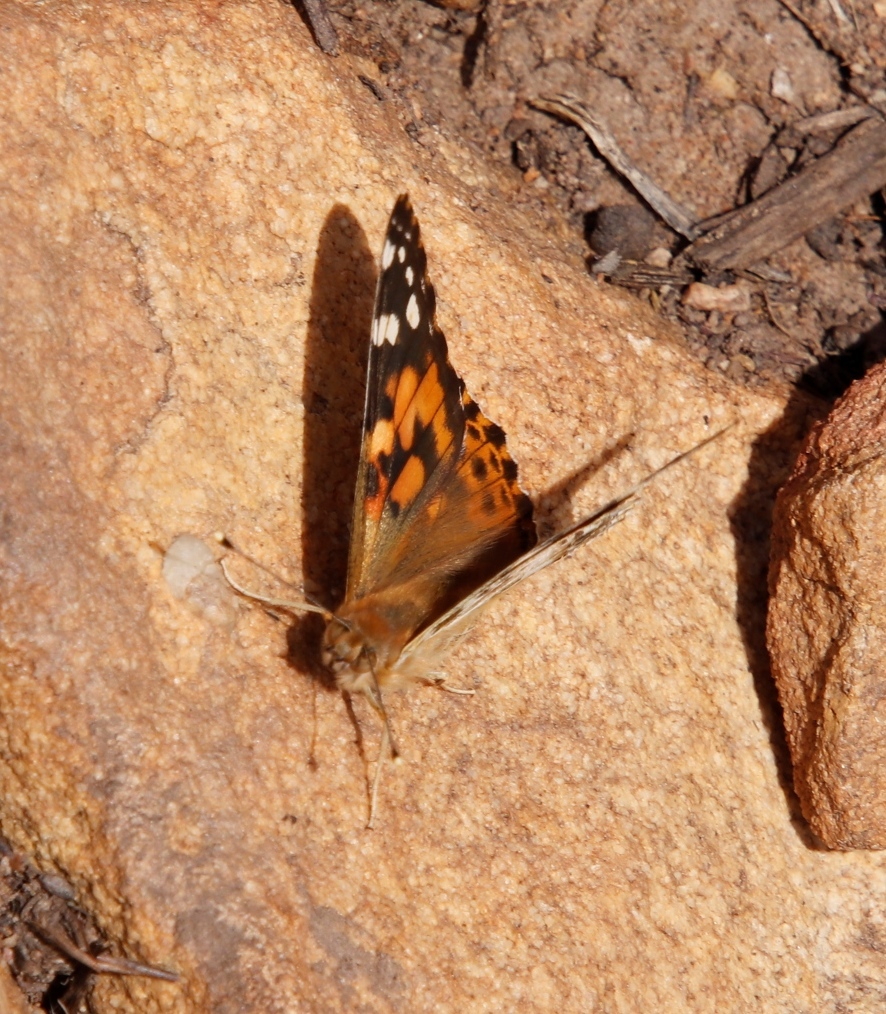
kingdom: Animalia
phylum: Arthropoda
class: Insecta
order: Lepidoptera
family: Nymphalidae
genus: Vanessa
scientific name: Vanessa cardui
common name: Painted lady
